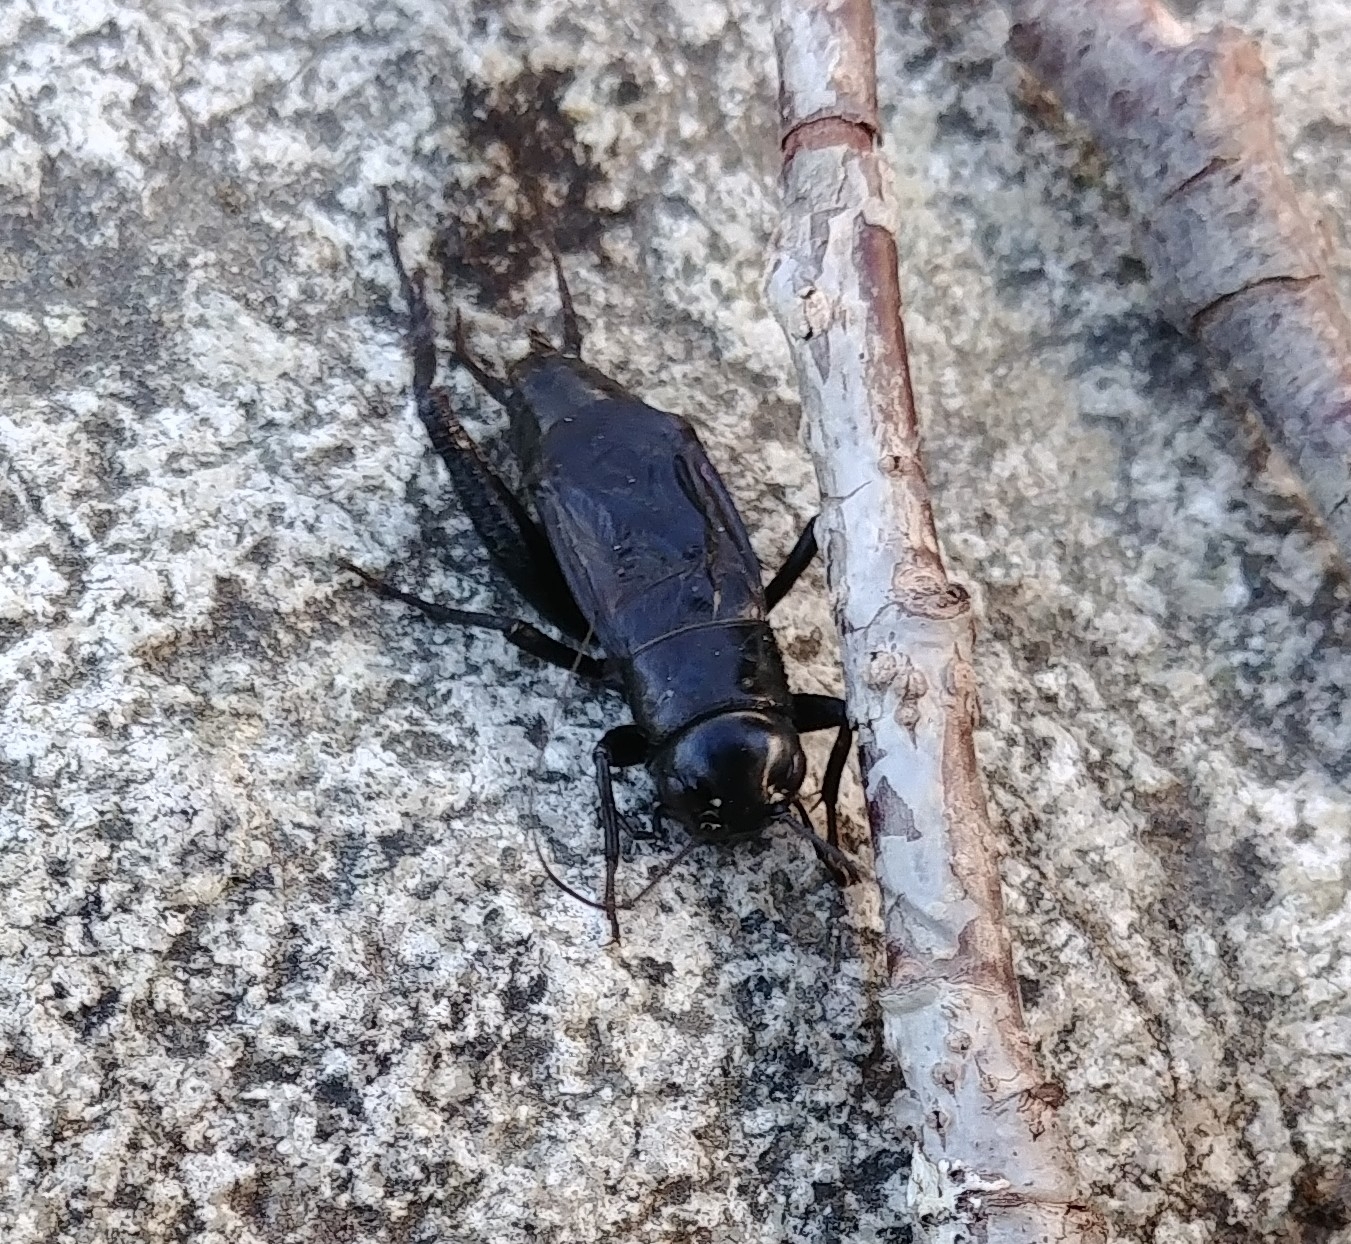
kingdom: Animalia
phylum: Arthropoda
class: Insecta
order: Orthoptera
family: Gryllidae
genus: Gryllus
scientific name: Gryllus pennsylvanicus
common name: Fall field cricket
